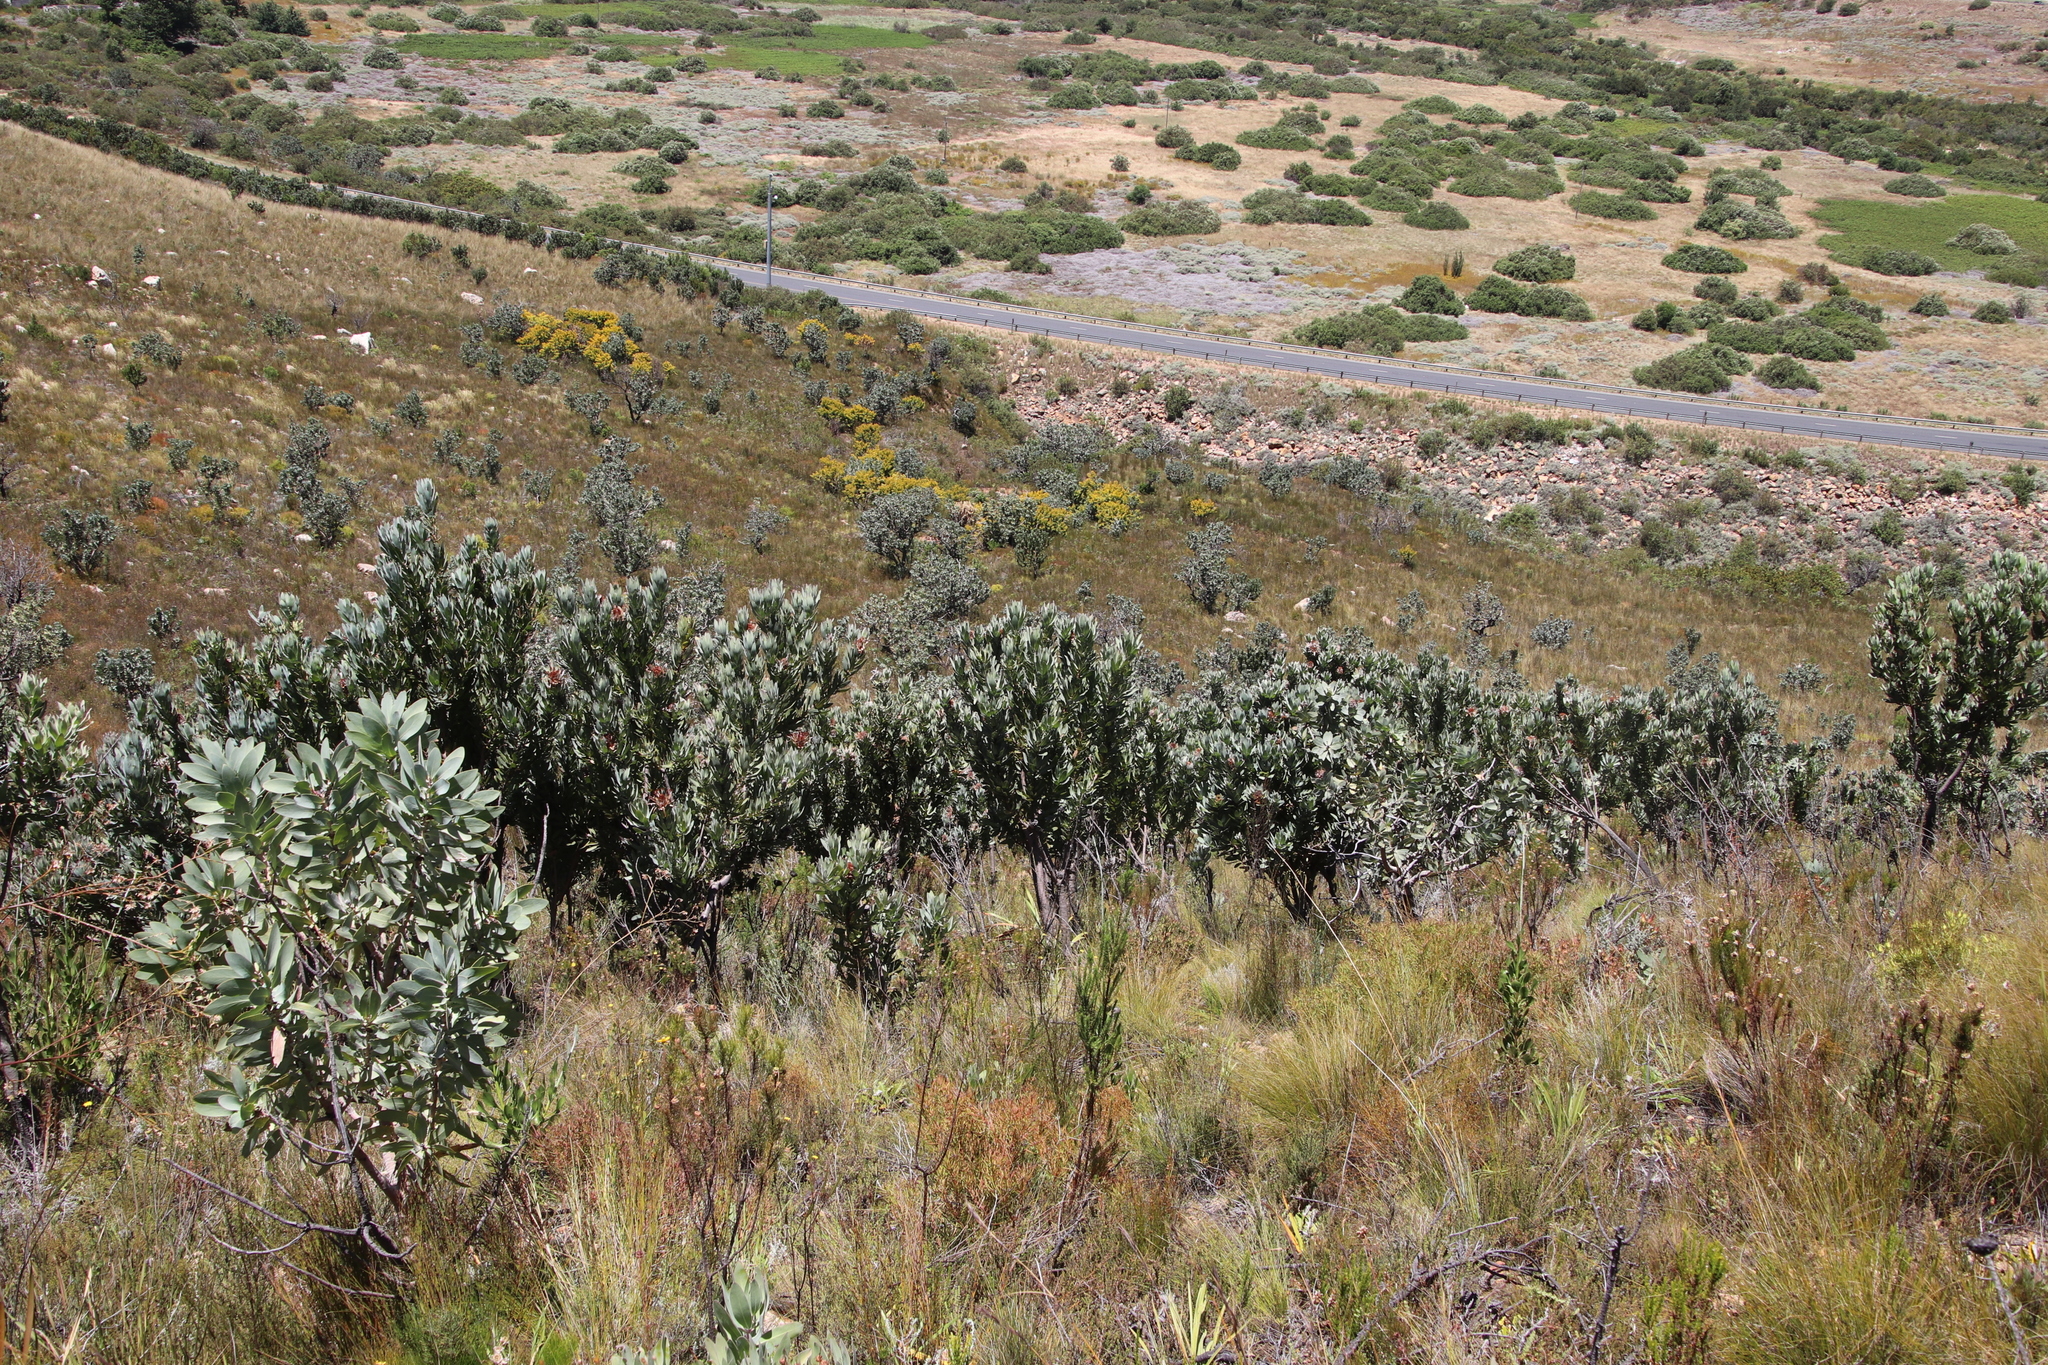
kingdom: Plantae
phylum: Tracheophyta
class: Magnoliopsida
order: Proteales
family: Proteaceae
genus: Protea
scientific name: Protea laurifolia
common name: Grey-leaf sugarbsh
